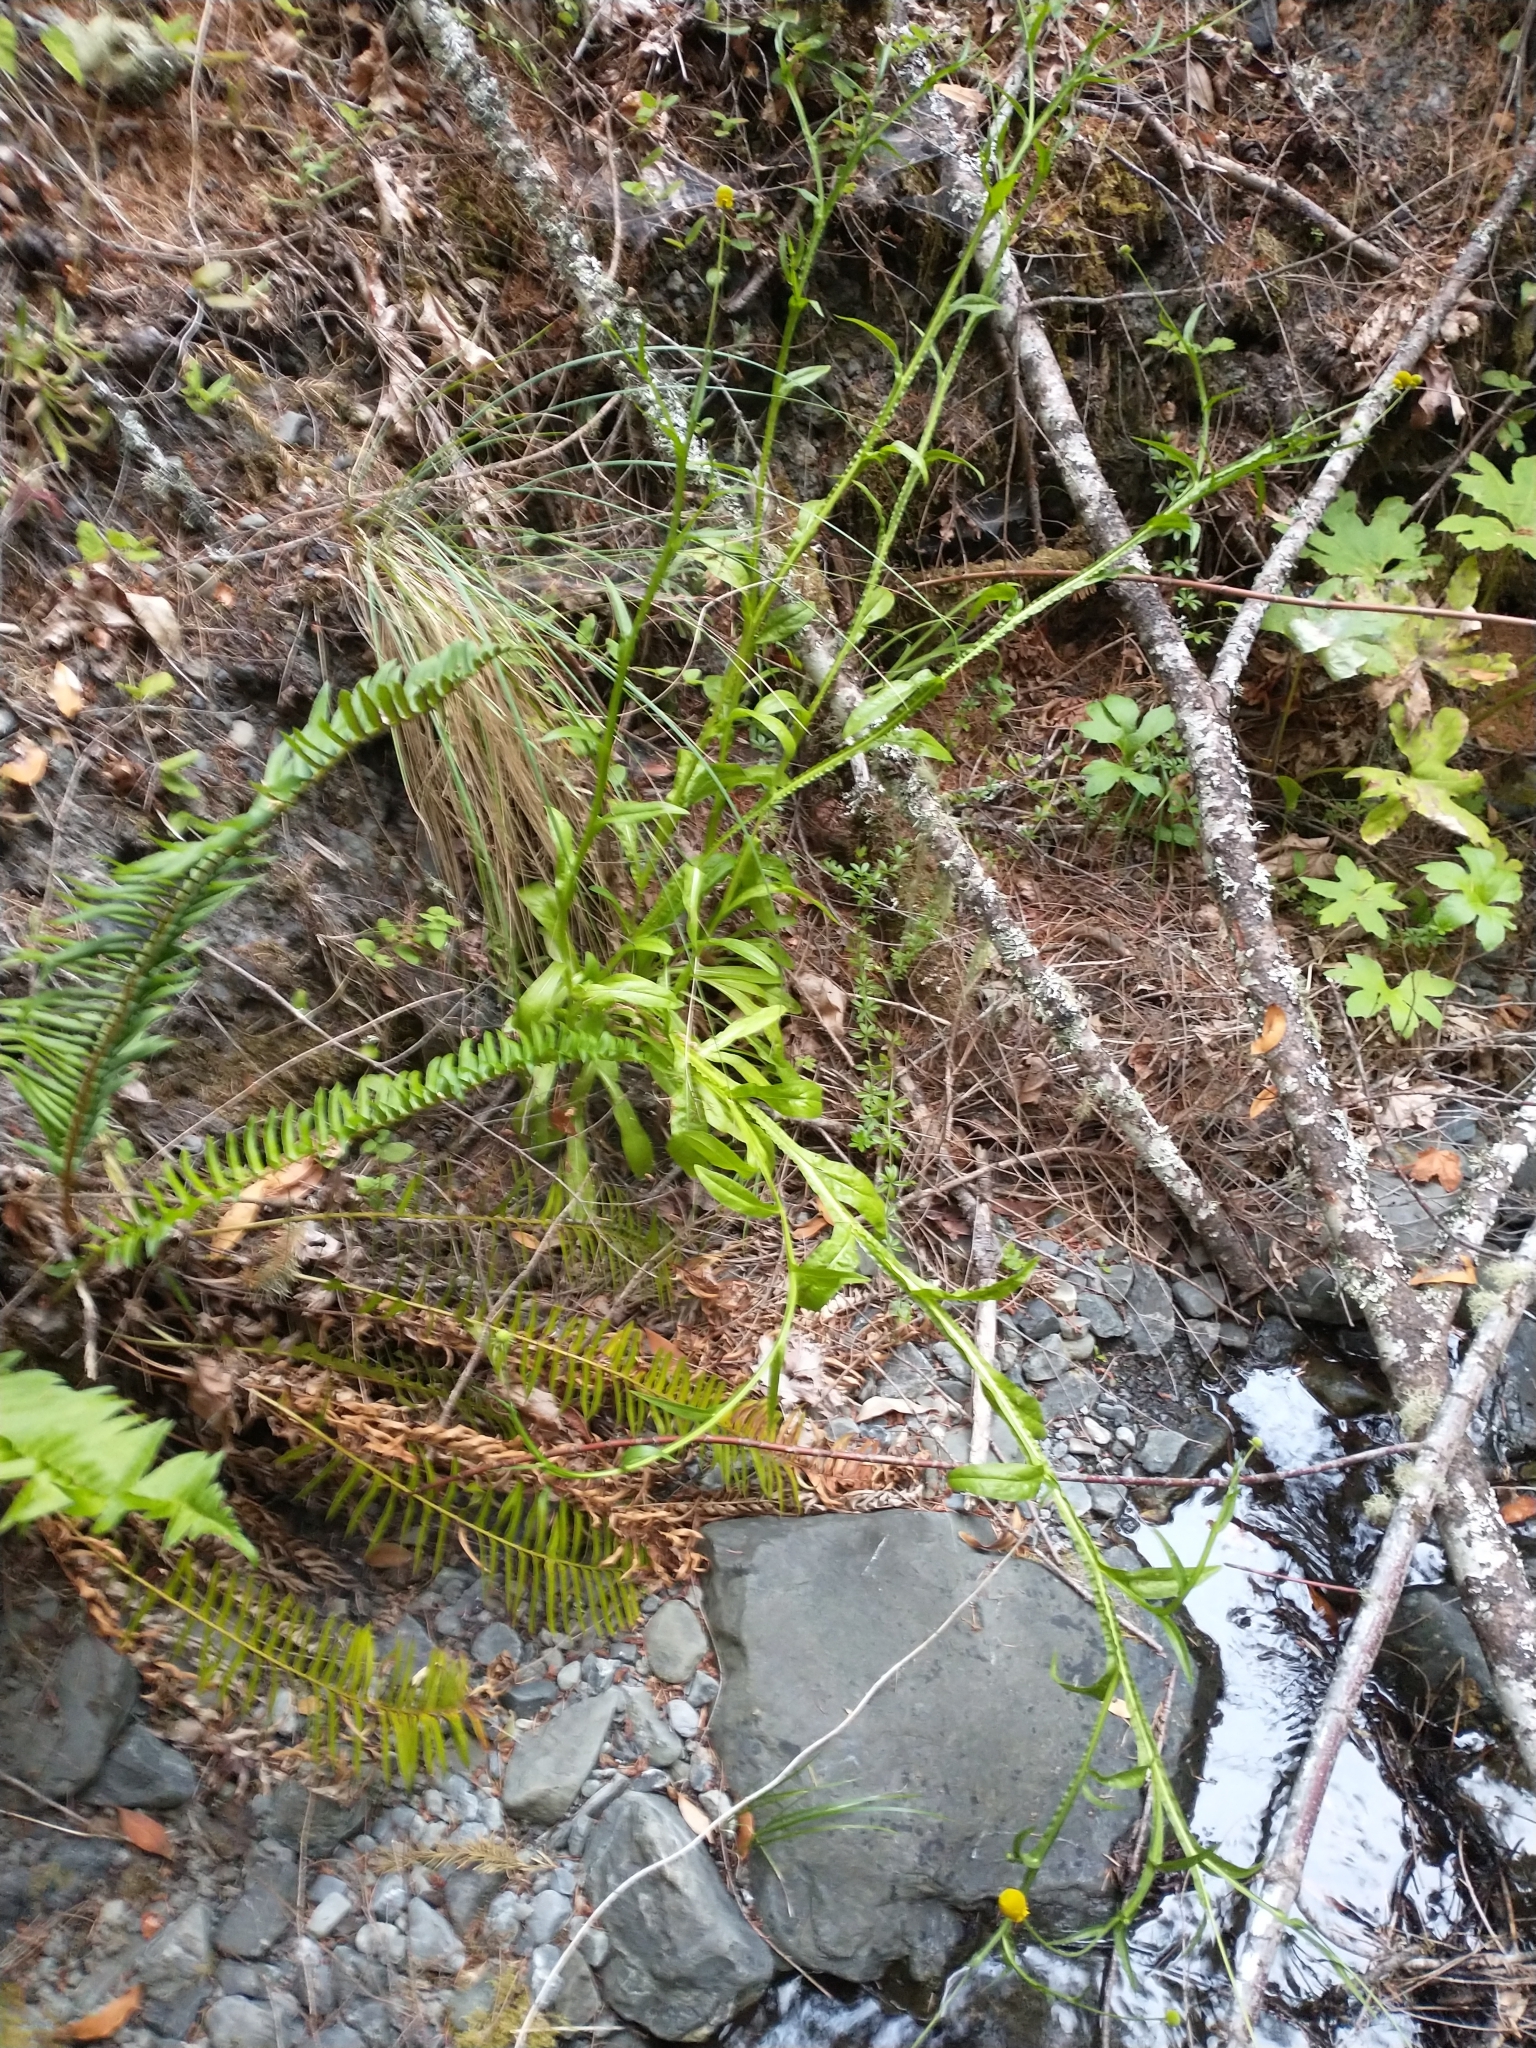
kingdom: Plantae
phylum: Tracheophyta
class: Magnoliopsida
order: Asterales
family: Asteraceae
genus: Helenium
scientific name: Helenium puberulum
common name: Sneezewort
